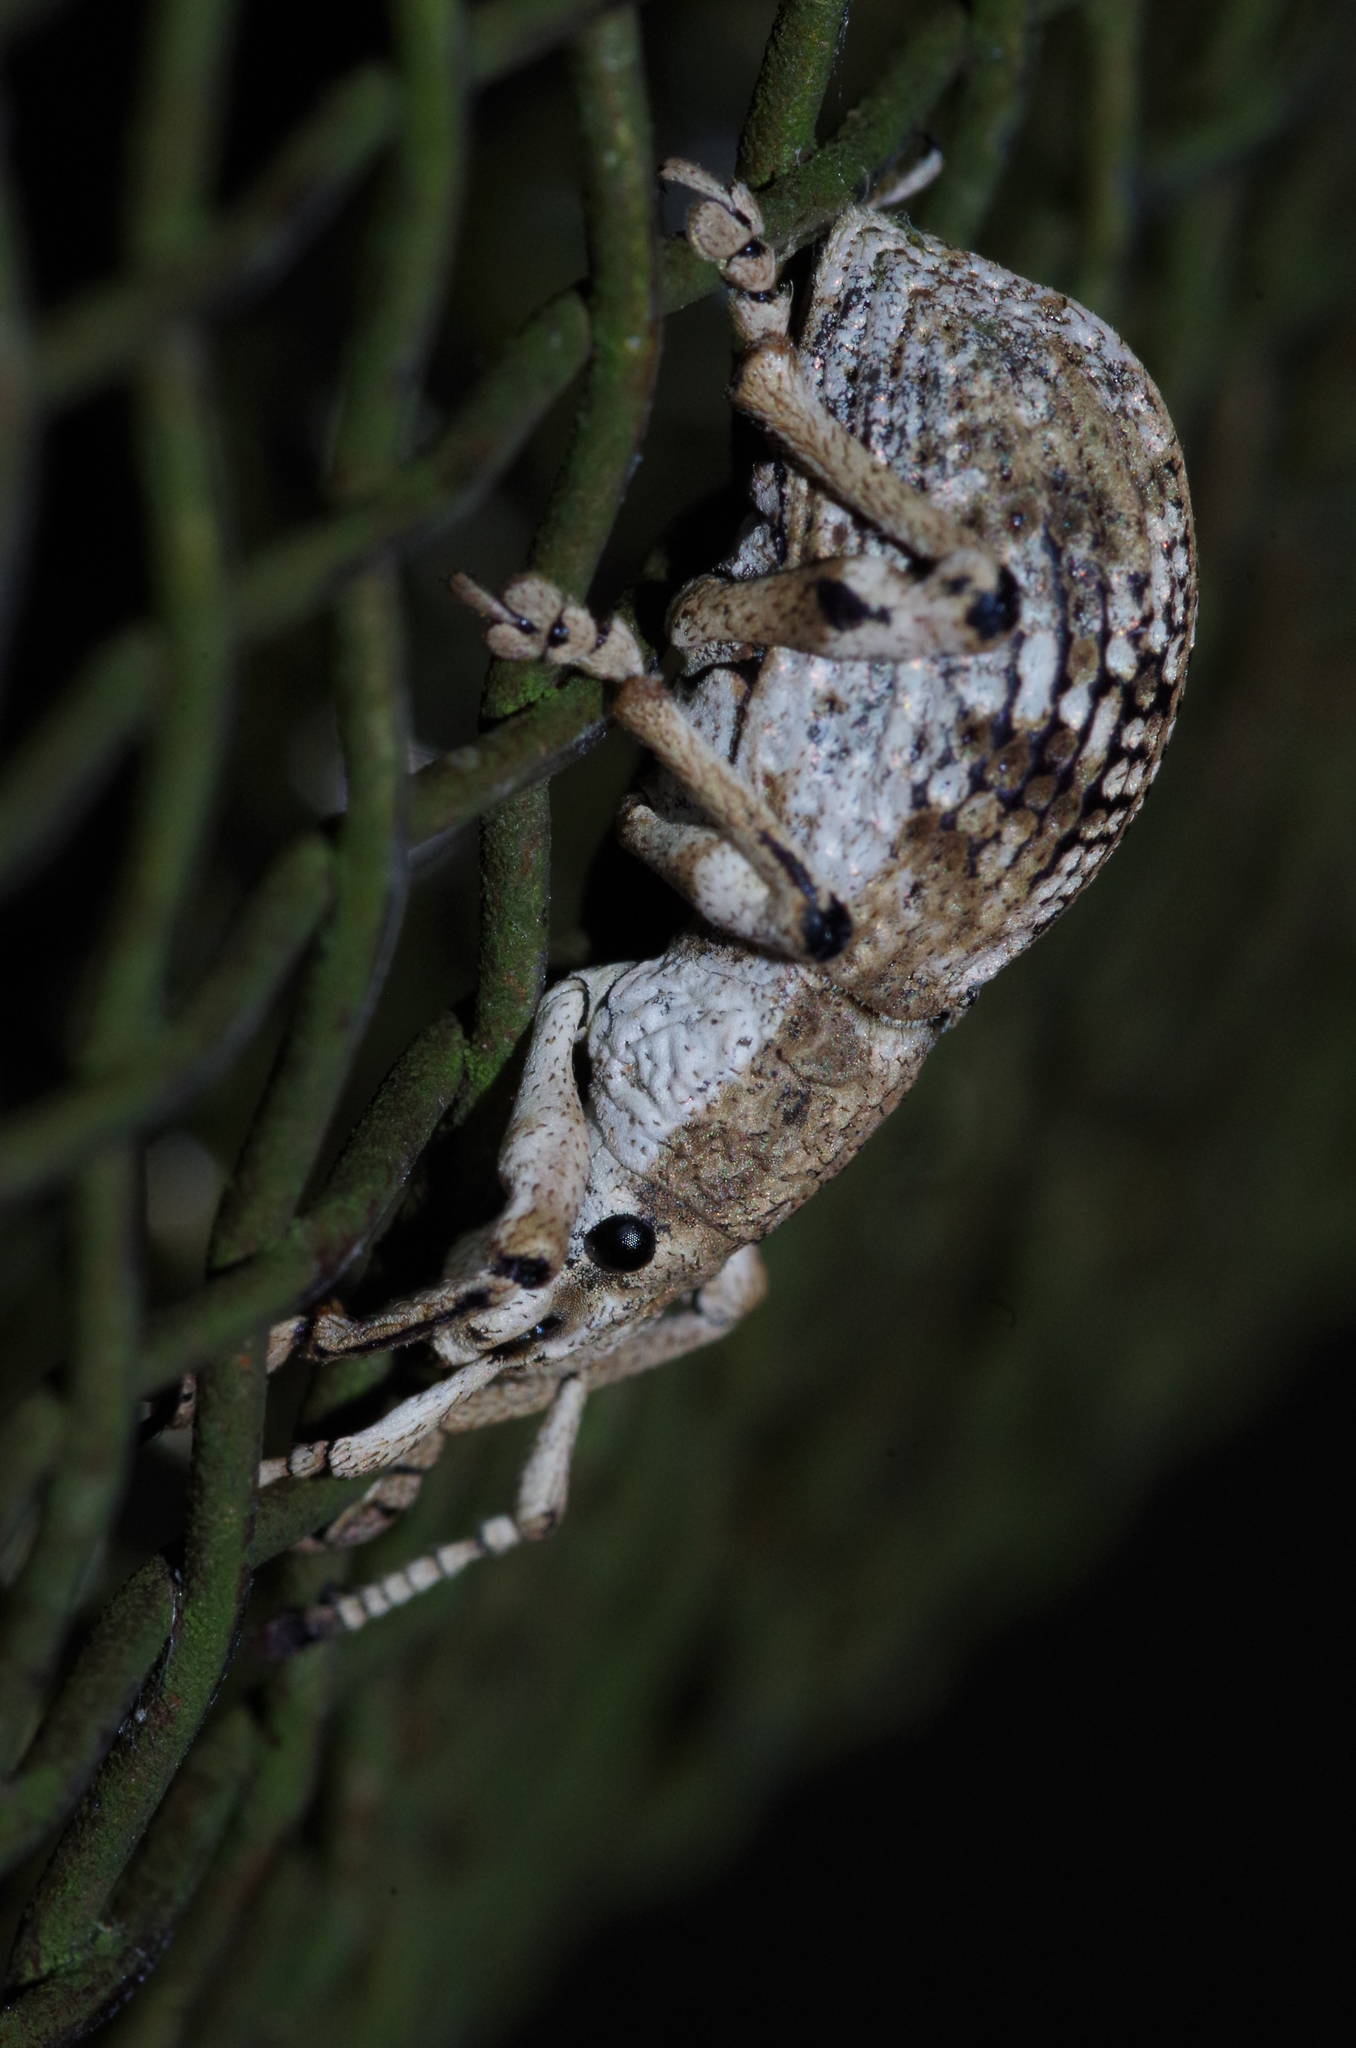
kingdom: Animalia
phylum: Arthropoda
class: Insecta
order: Coleoptera
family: Curculionidae
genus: Episomus
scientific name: Episomus mori
